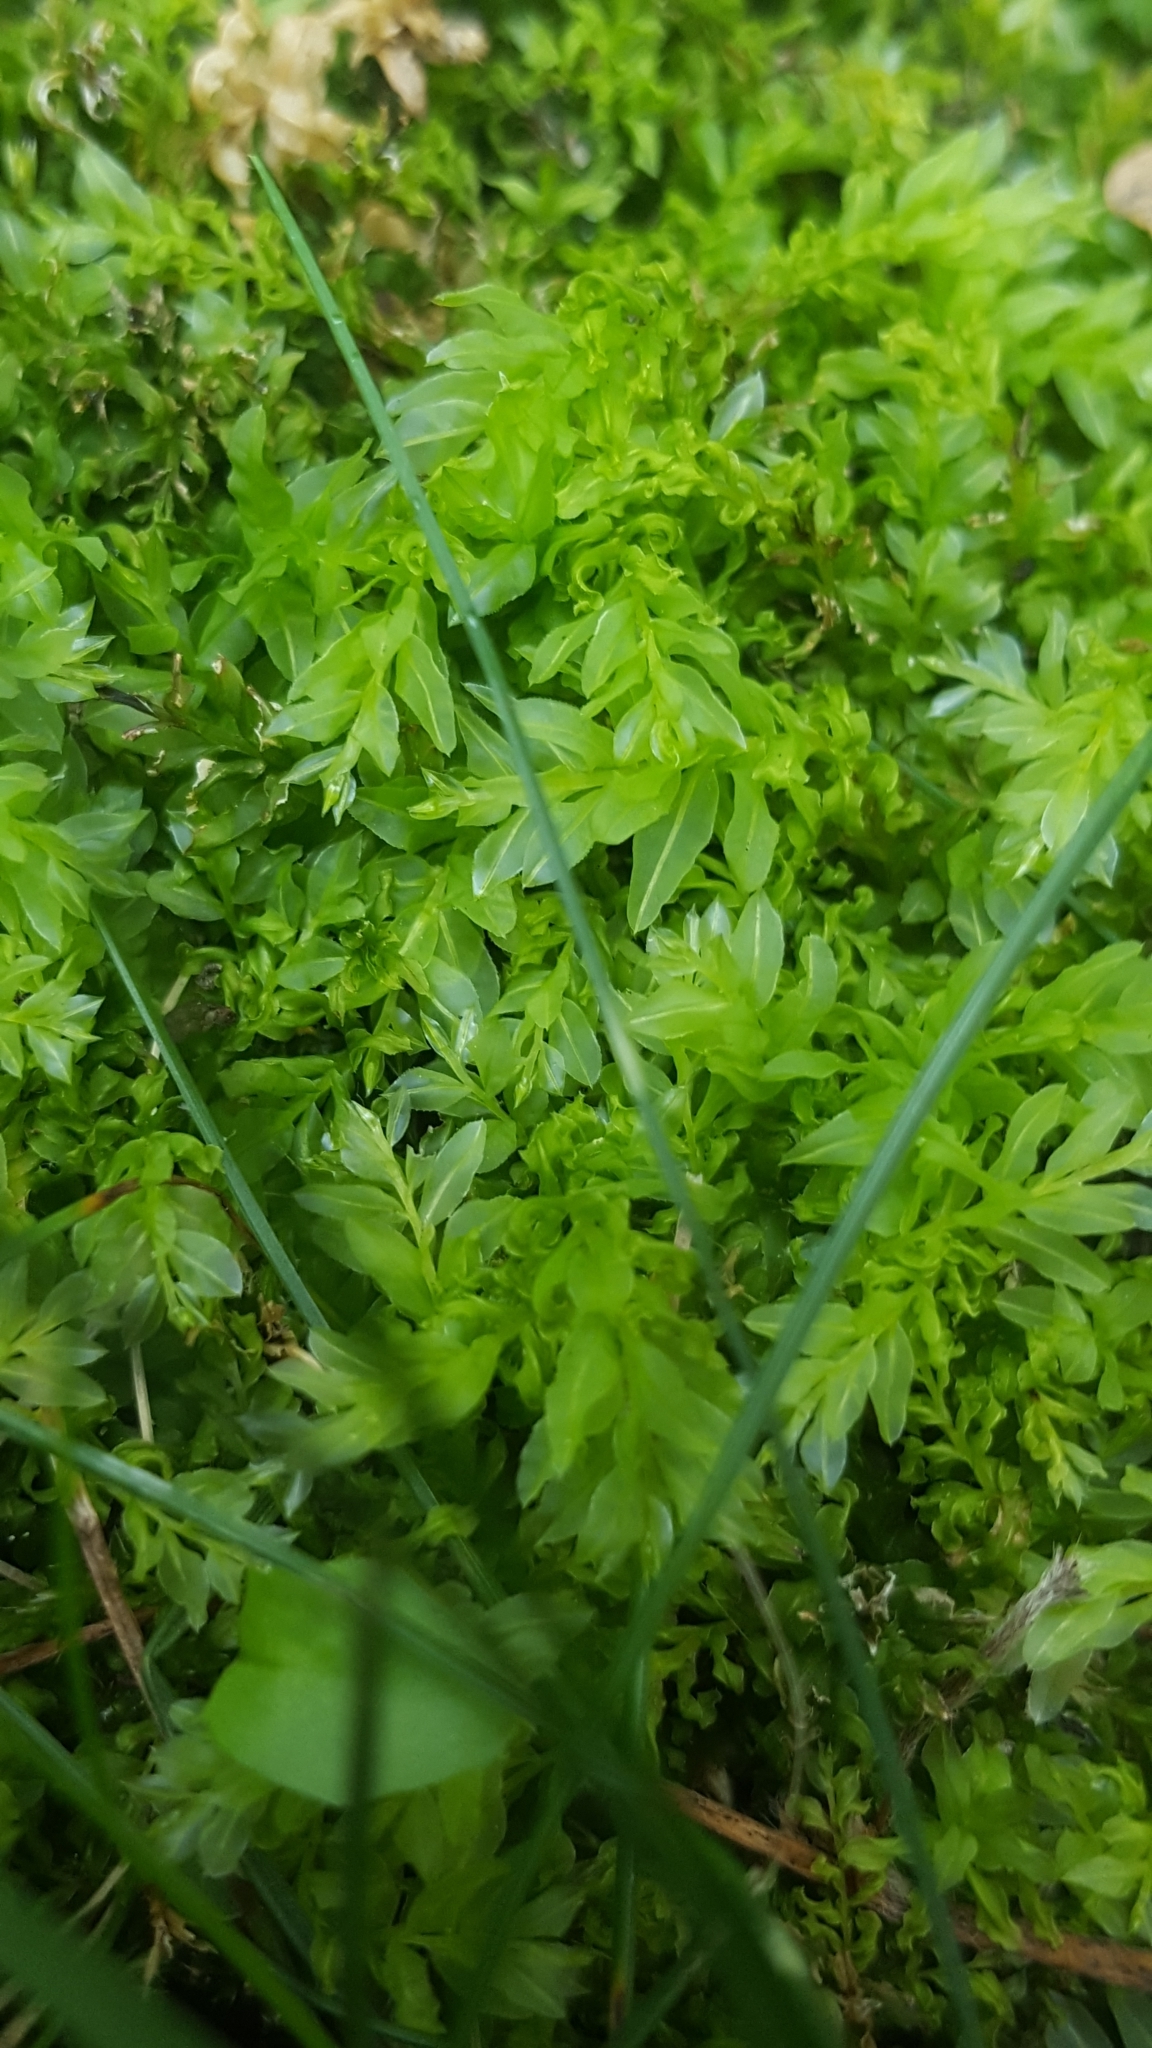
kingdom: Plantae
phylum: Bryophyta
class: Bryopsida
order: Bryales
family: Mniaceae
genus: Plagiomnium
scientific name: Plagiomnium undulatum
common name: Hart's-tongue thyme-moss
